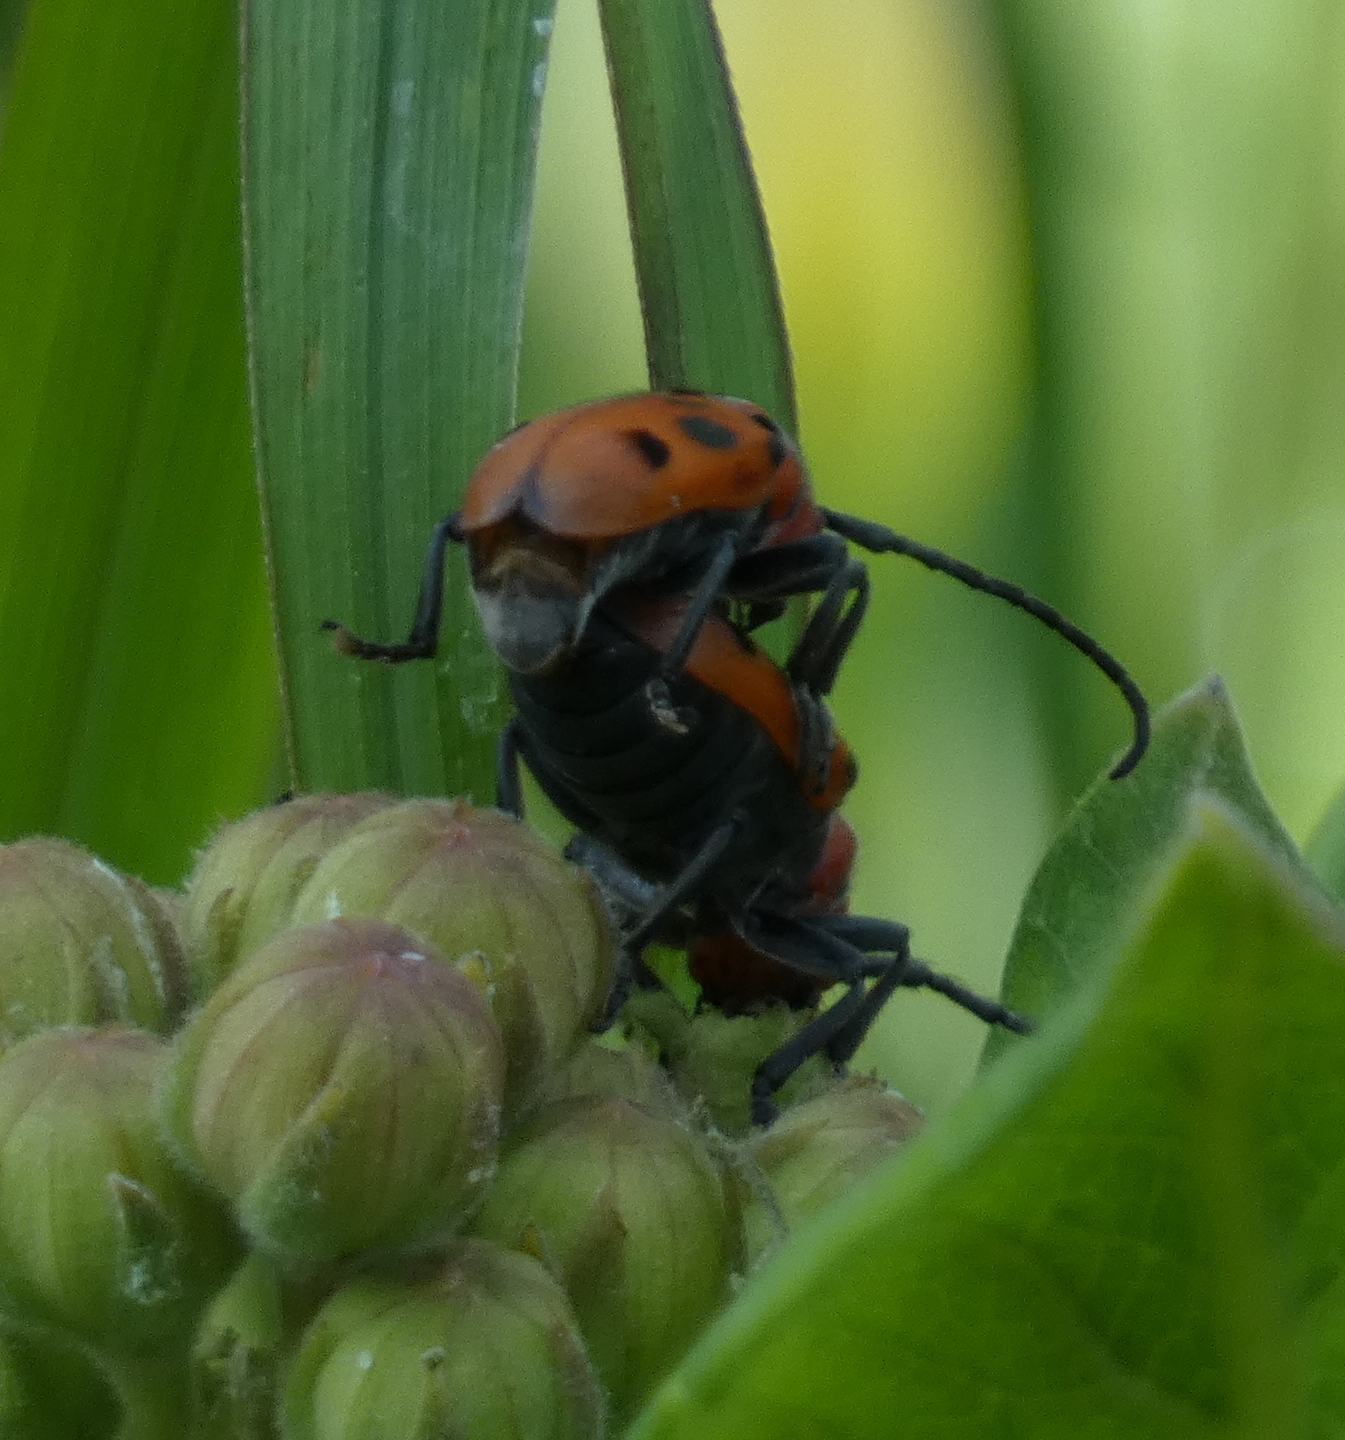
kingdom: Animalia
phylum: Arthropoda
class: Insecta
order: Coleoptera
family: Cerambycidae
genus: Tetraopes
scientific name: Tetraopes tetrophthalmus
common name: Red milkweed beetle
